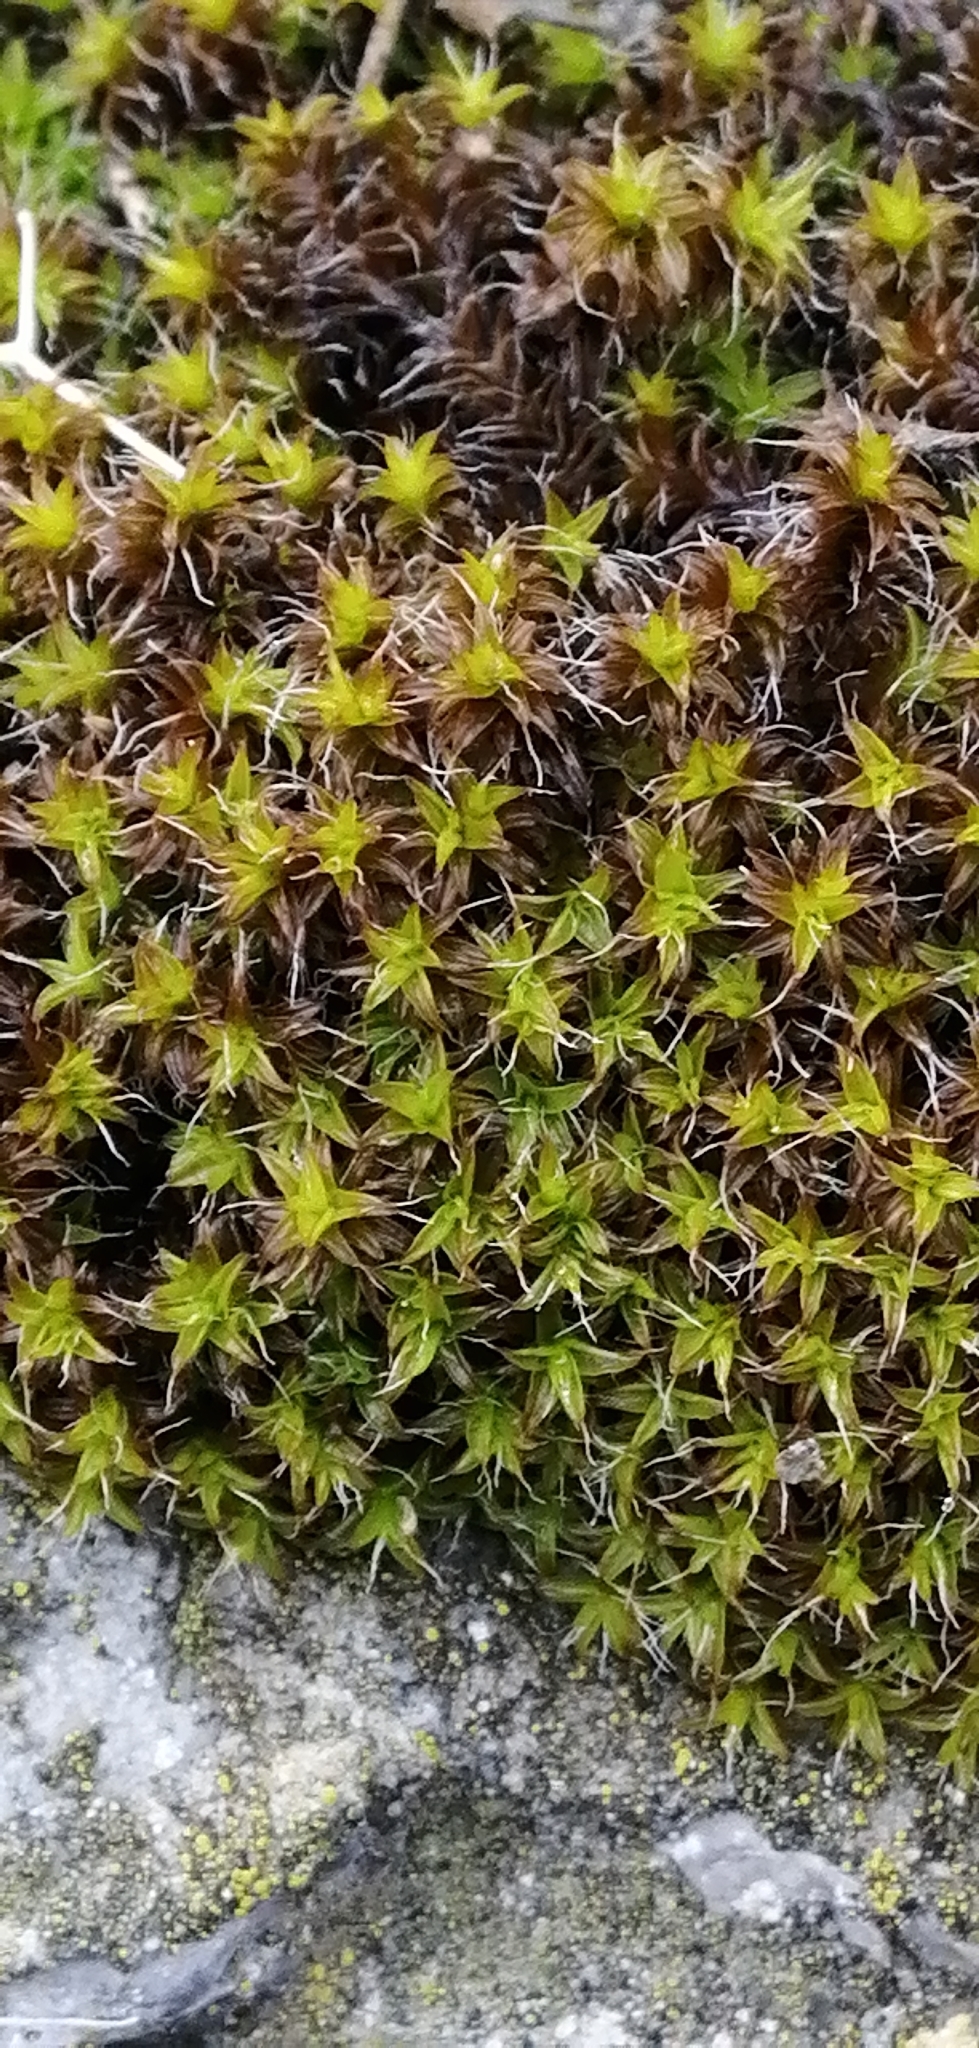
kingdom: Plantae
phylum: Bryophyta
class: Bryopsida
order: Pottiales
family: Pottiaceae
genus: Syntrichia
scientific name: Syntrichia ruralis
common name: Sidewalk screw moss
